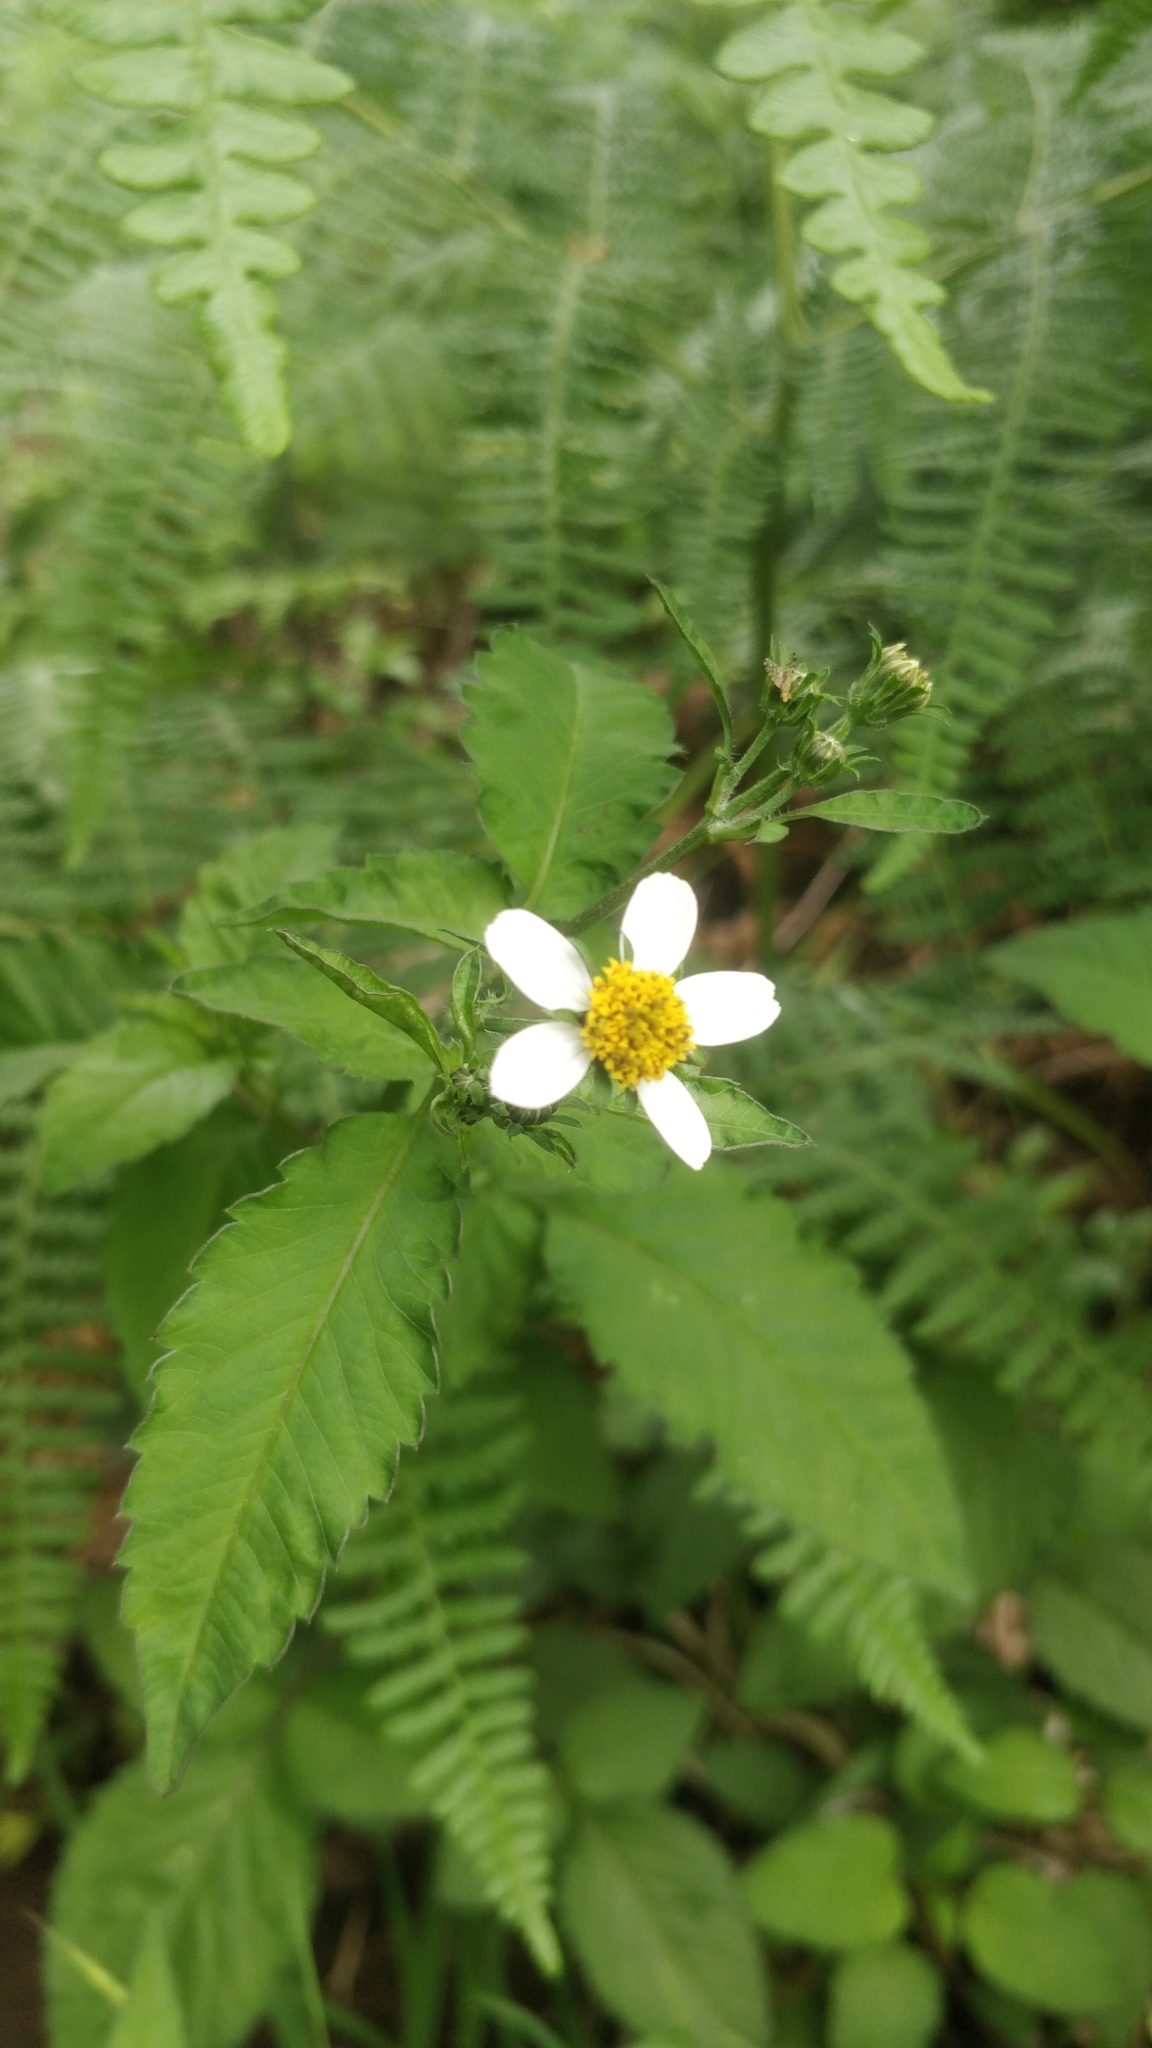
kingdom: Plantae
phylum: Tracheophyta
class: Magnoliopsida
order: Asterales
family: Asteraceae
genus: Bidens
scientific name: Bidens pilosa
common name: Black-jack
